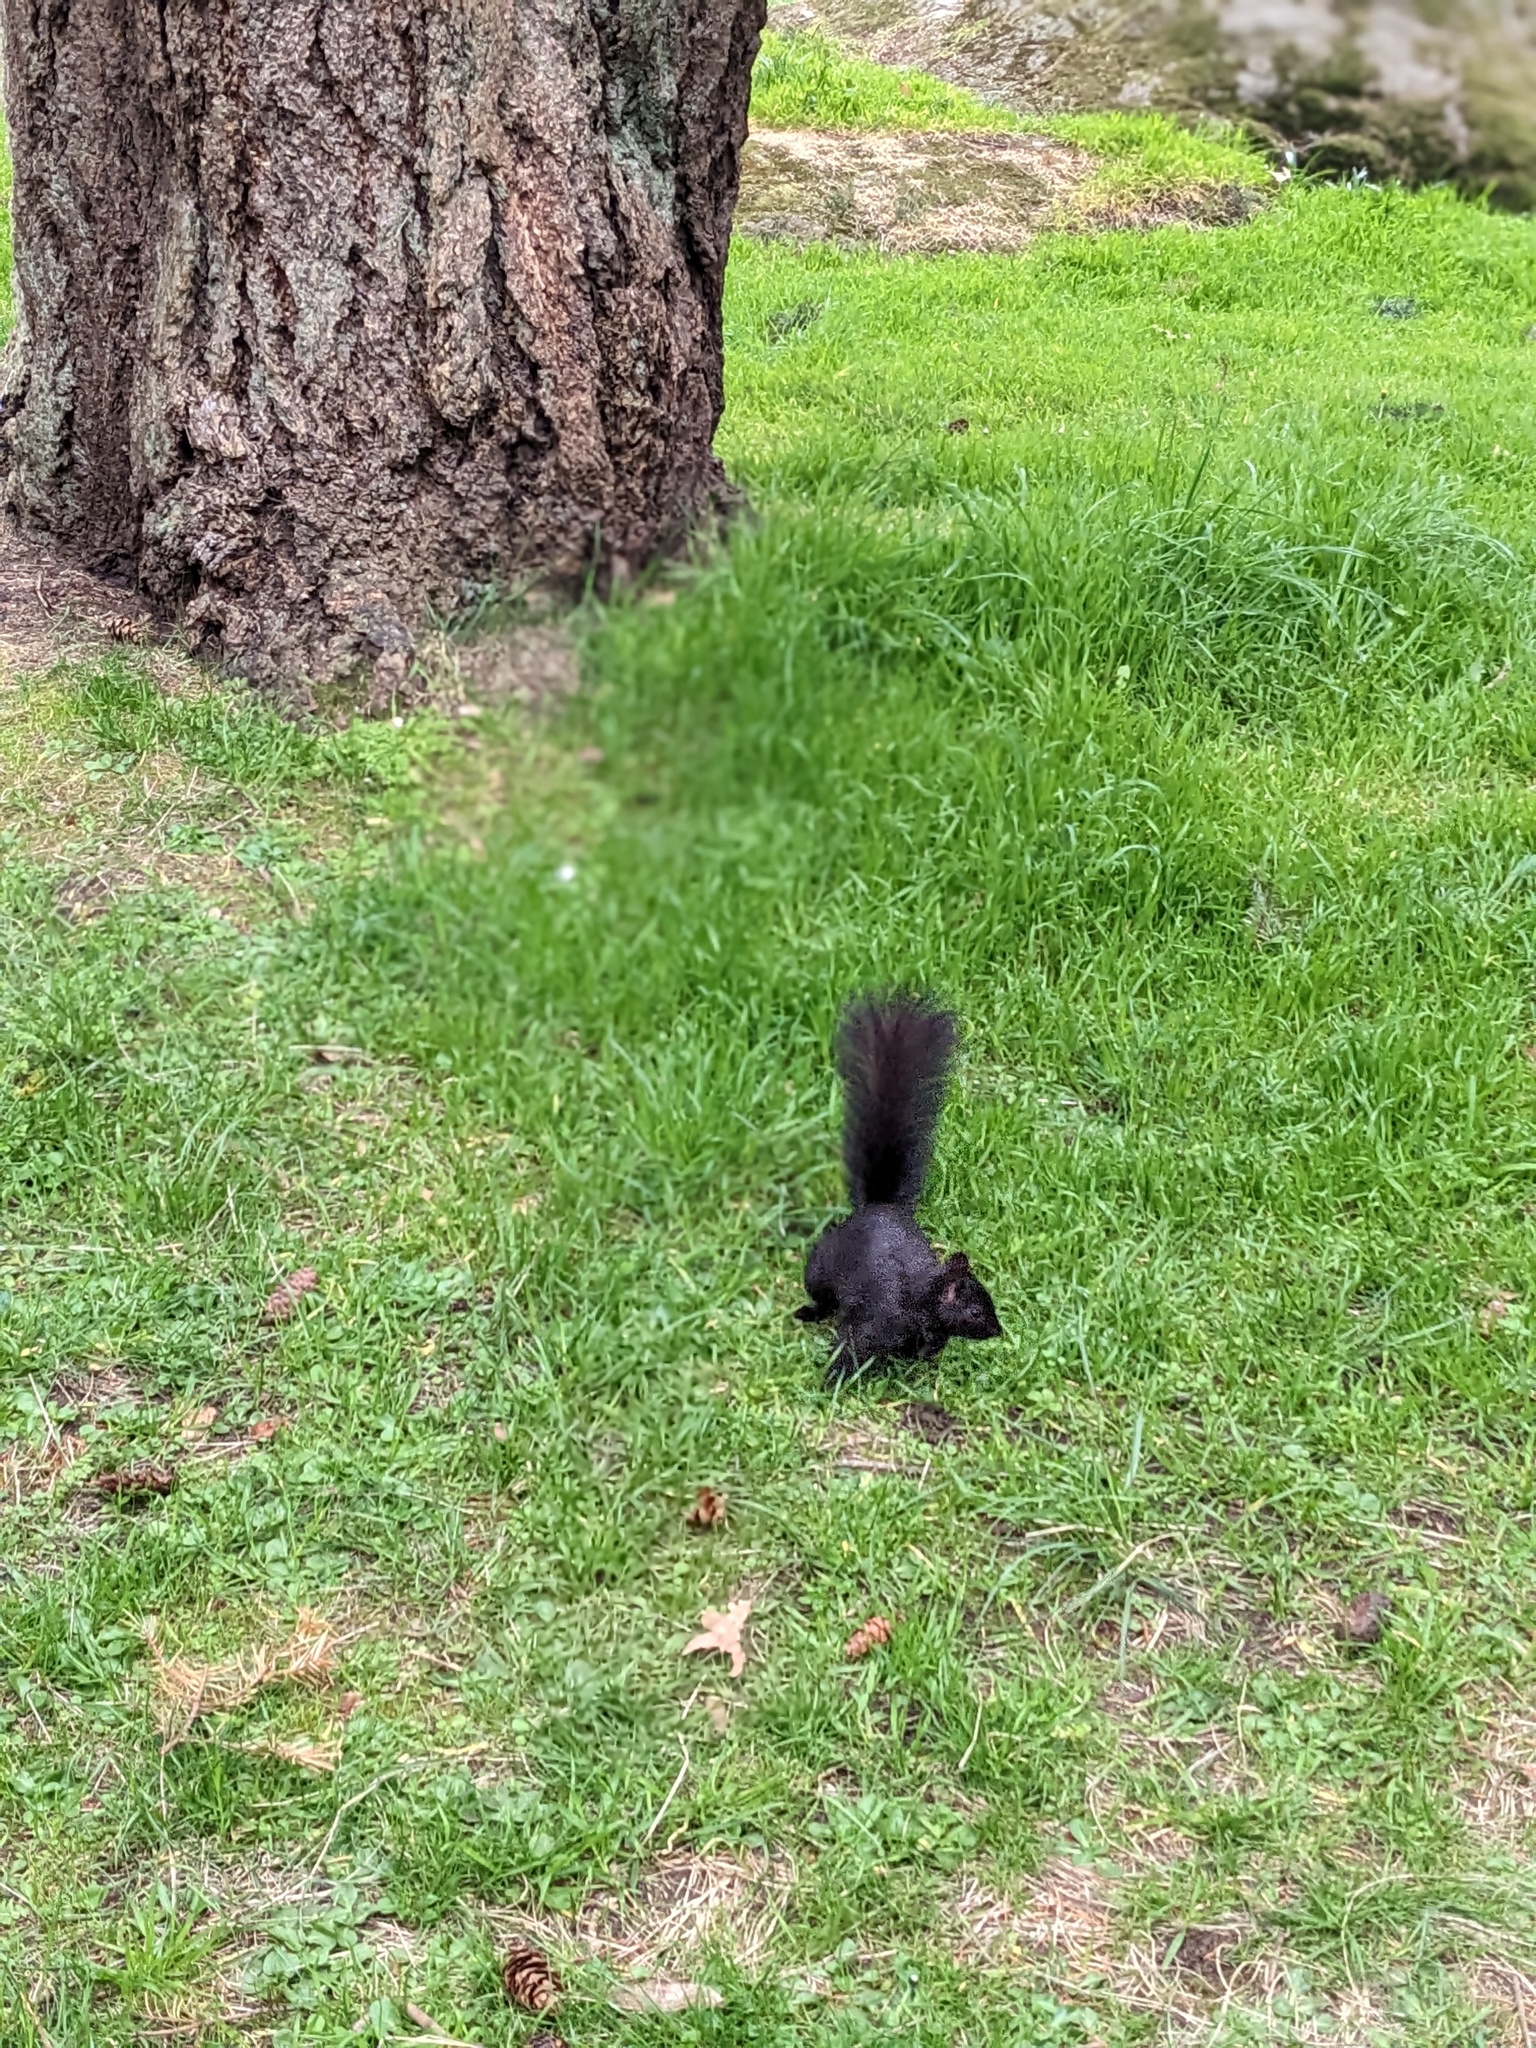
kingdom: Animalia
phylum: Chordata
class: Mammalia
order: Rodentia
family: Sciuridae
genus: Sciurus
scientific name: Sciurus carolinensis
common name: Eastern gray squirrel
